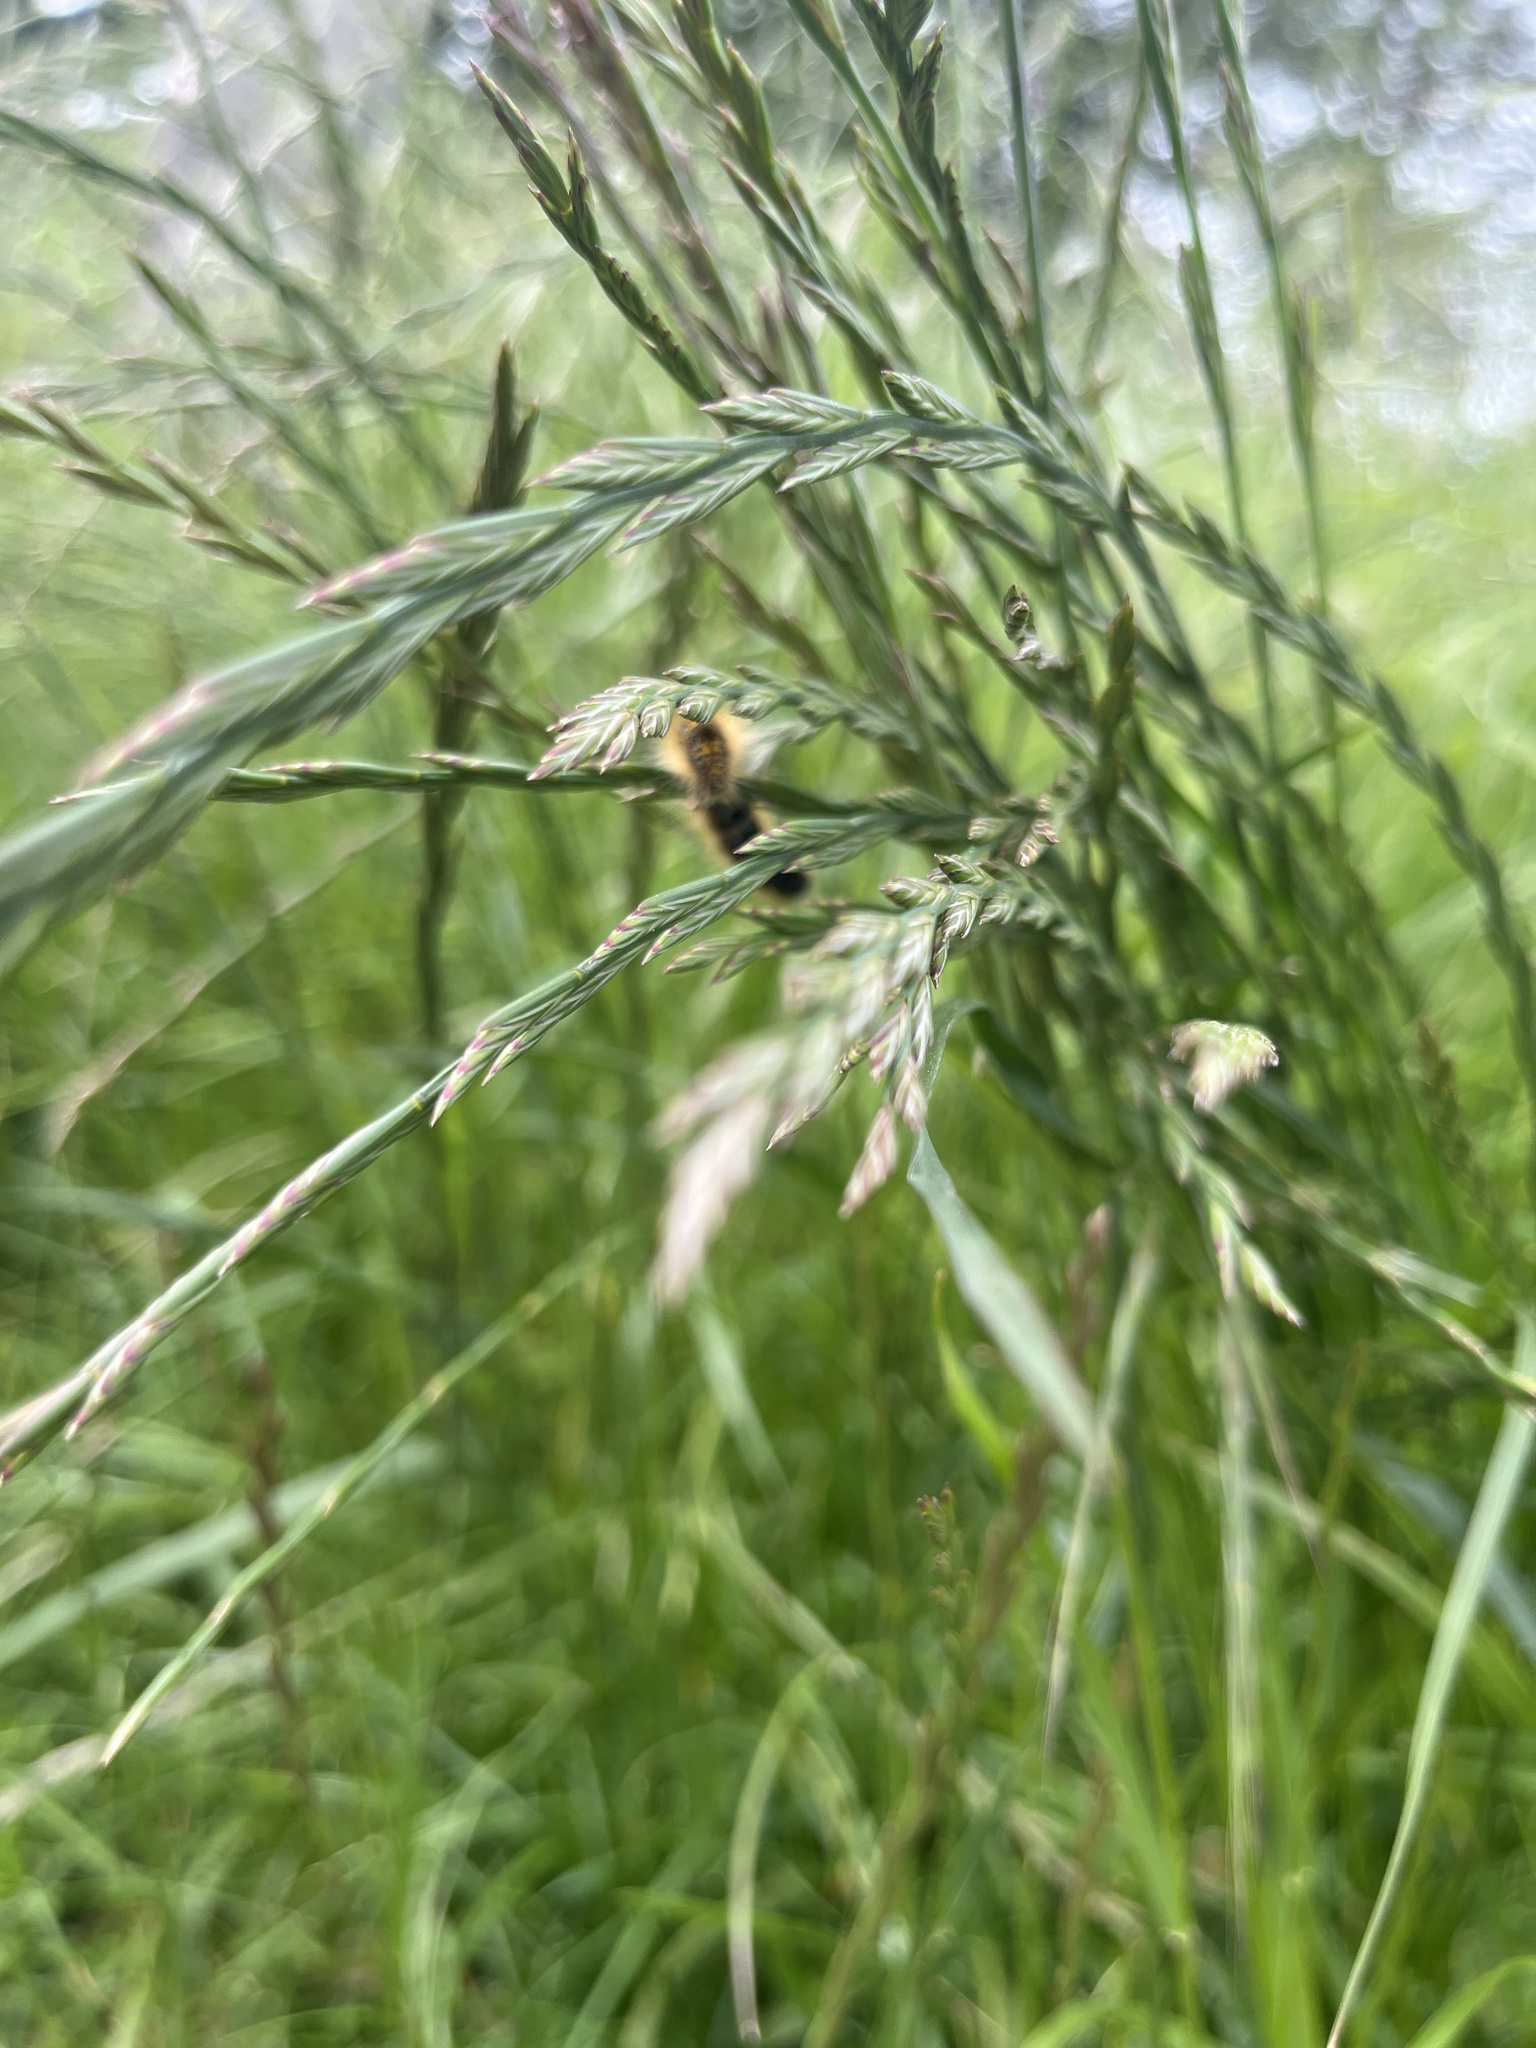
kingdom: Animalia
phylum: Arthropoda
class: Insecta
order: Lepidoptera
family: Lasiocampidae
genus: Malacosoma
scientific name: Malacosoma californica
